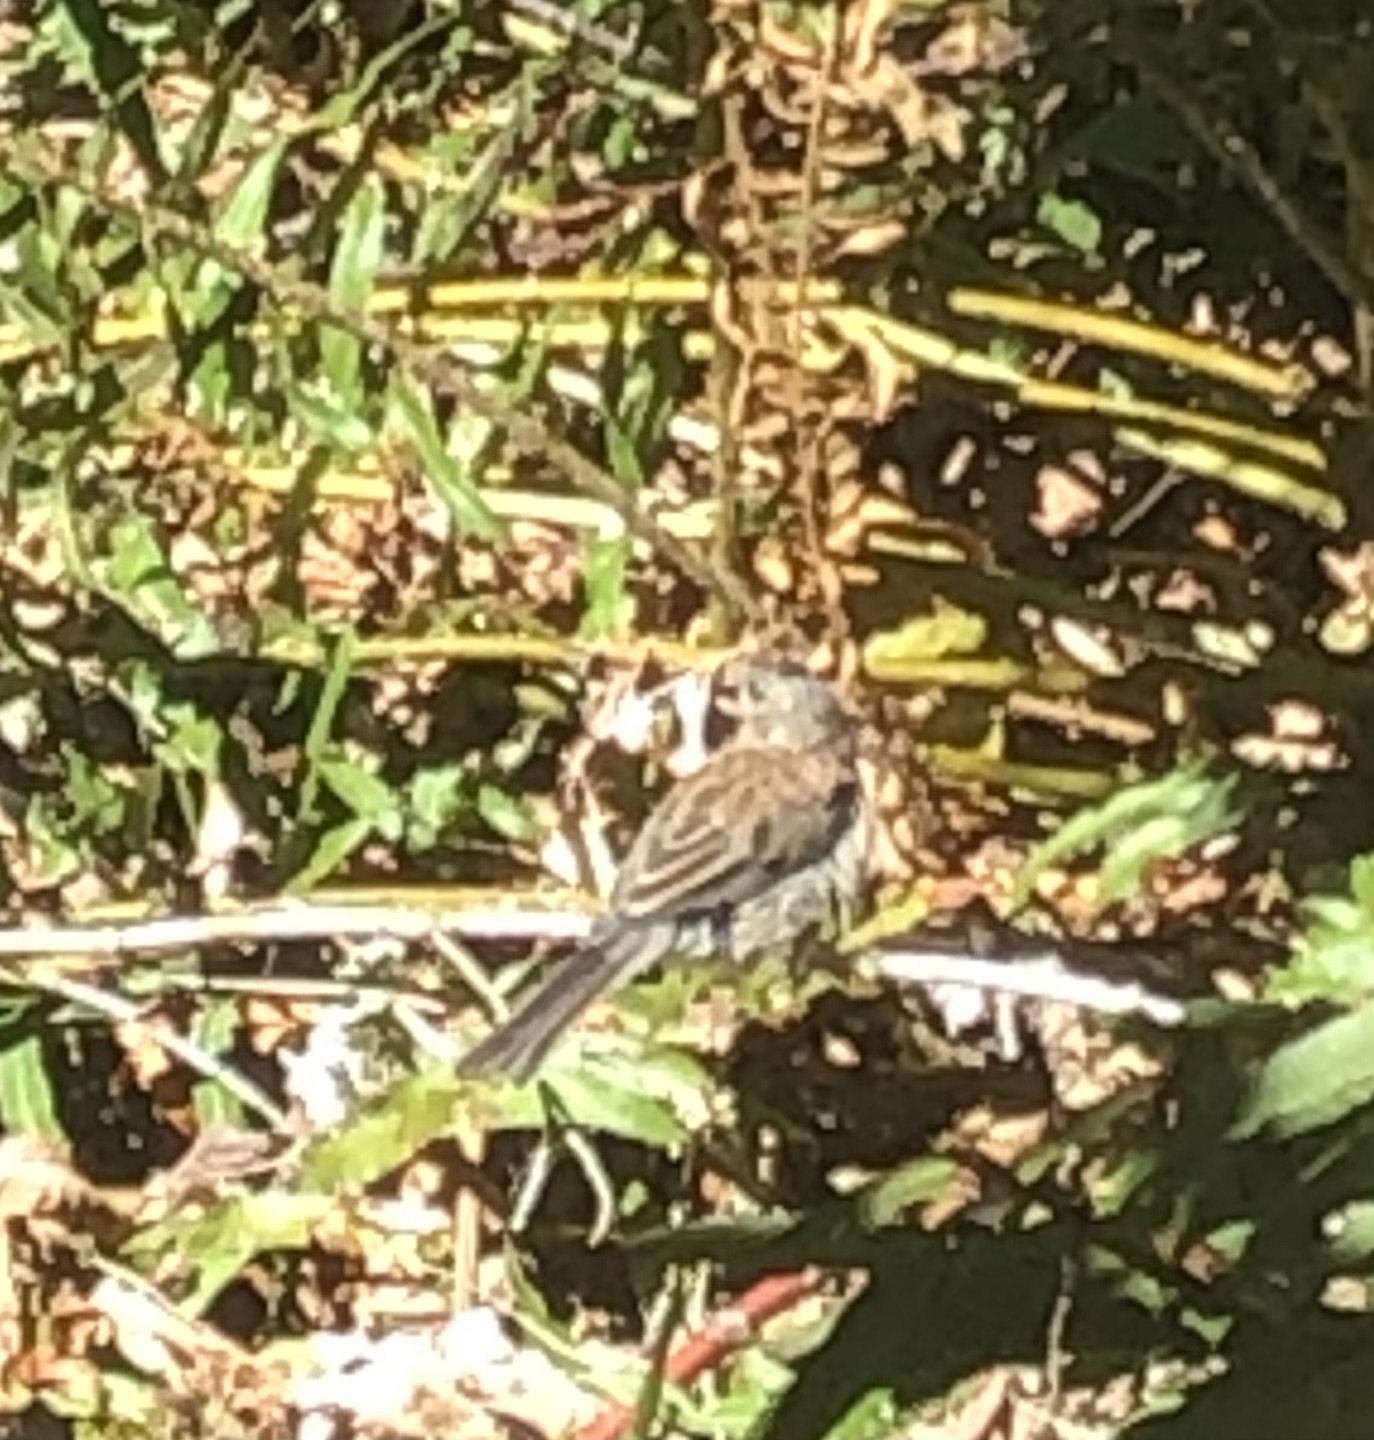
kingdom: Animalia
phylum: Chordata
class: Aves
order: Passeriformes
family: Passerellidae
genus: Junco
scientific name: Junco hyemalis
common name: Dark-eyed junco
